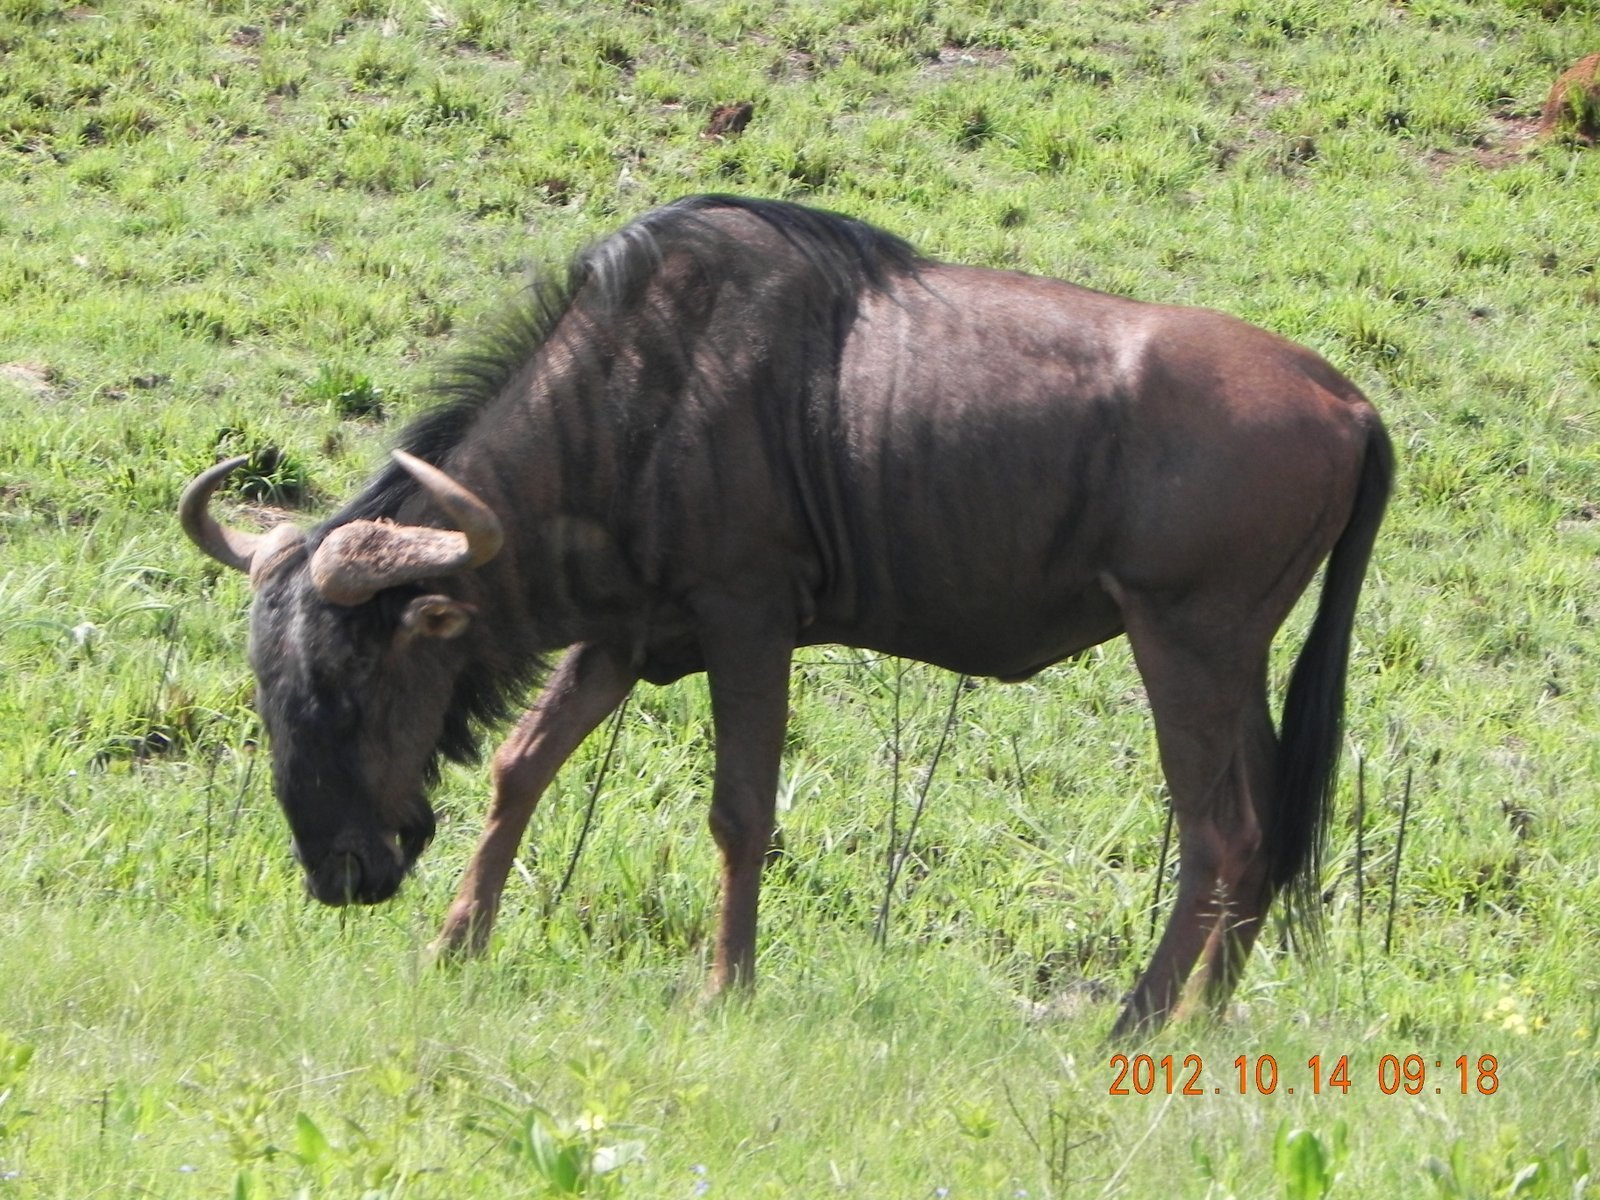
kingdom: Animalia
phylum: Chordata
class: Mammalia
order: Artiodactyla
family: Bovidae
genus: Connochaetes
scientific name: Connochaetes taurinus
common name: Blue wildebeest
